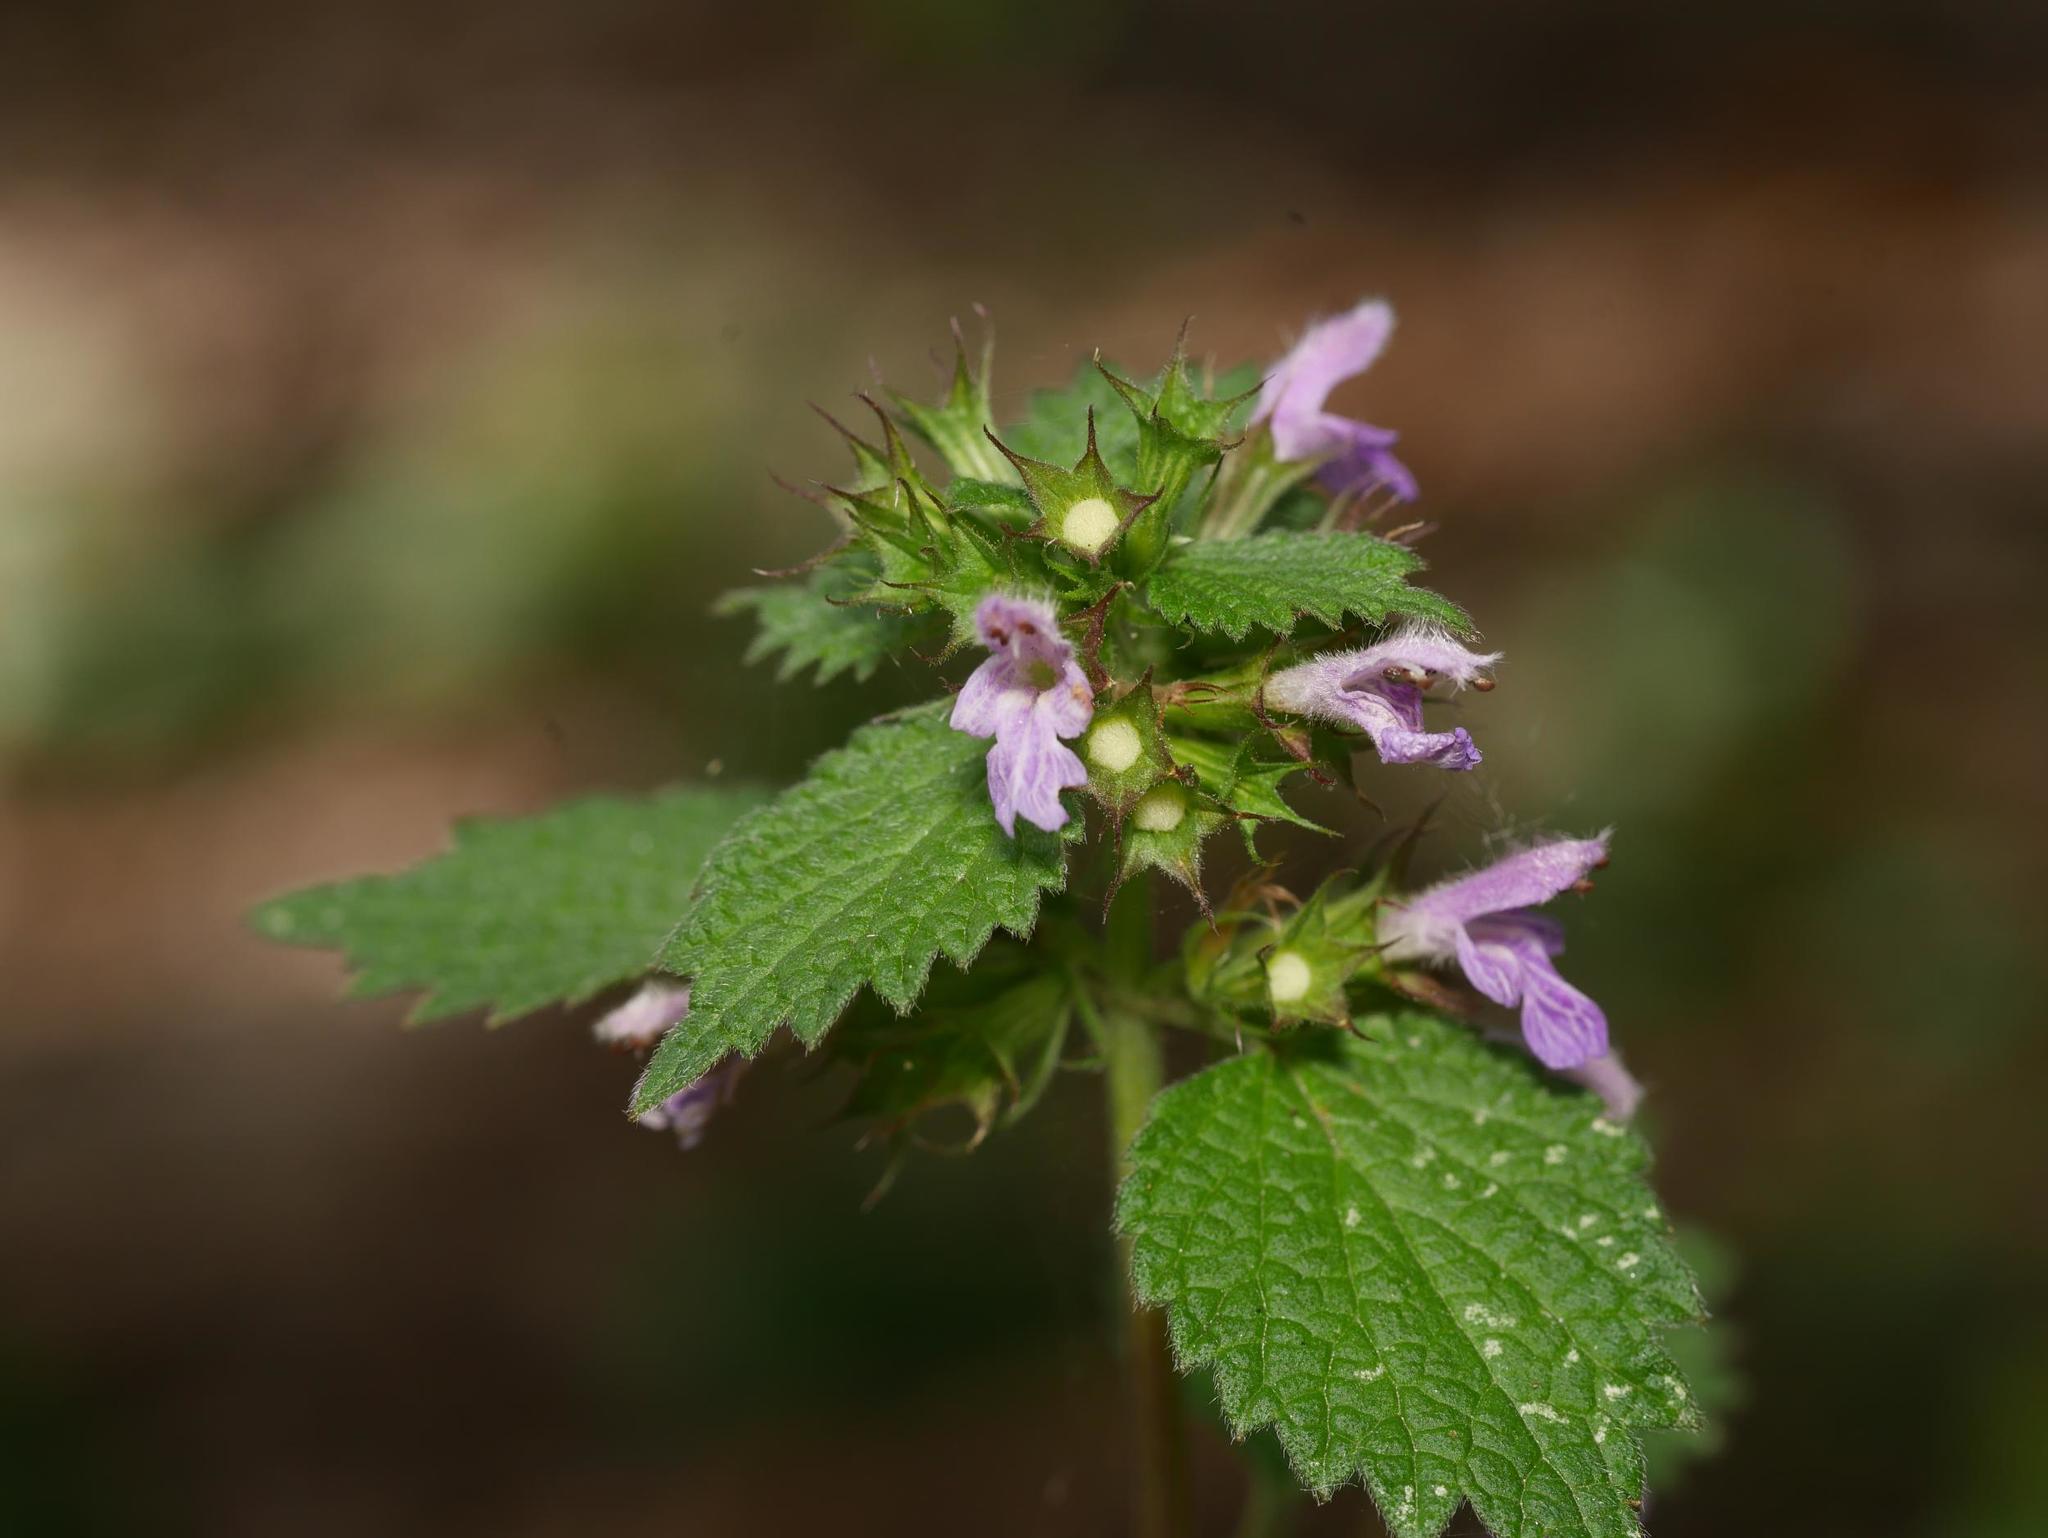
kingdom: Plantae
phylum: Tracheophyta
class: Magnoliopsida
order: Lamiales
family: Lamiaceae
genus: Ballota
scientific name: Ballota nigra
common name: Black horehound
